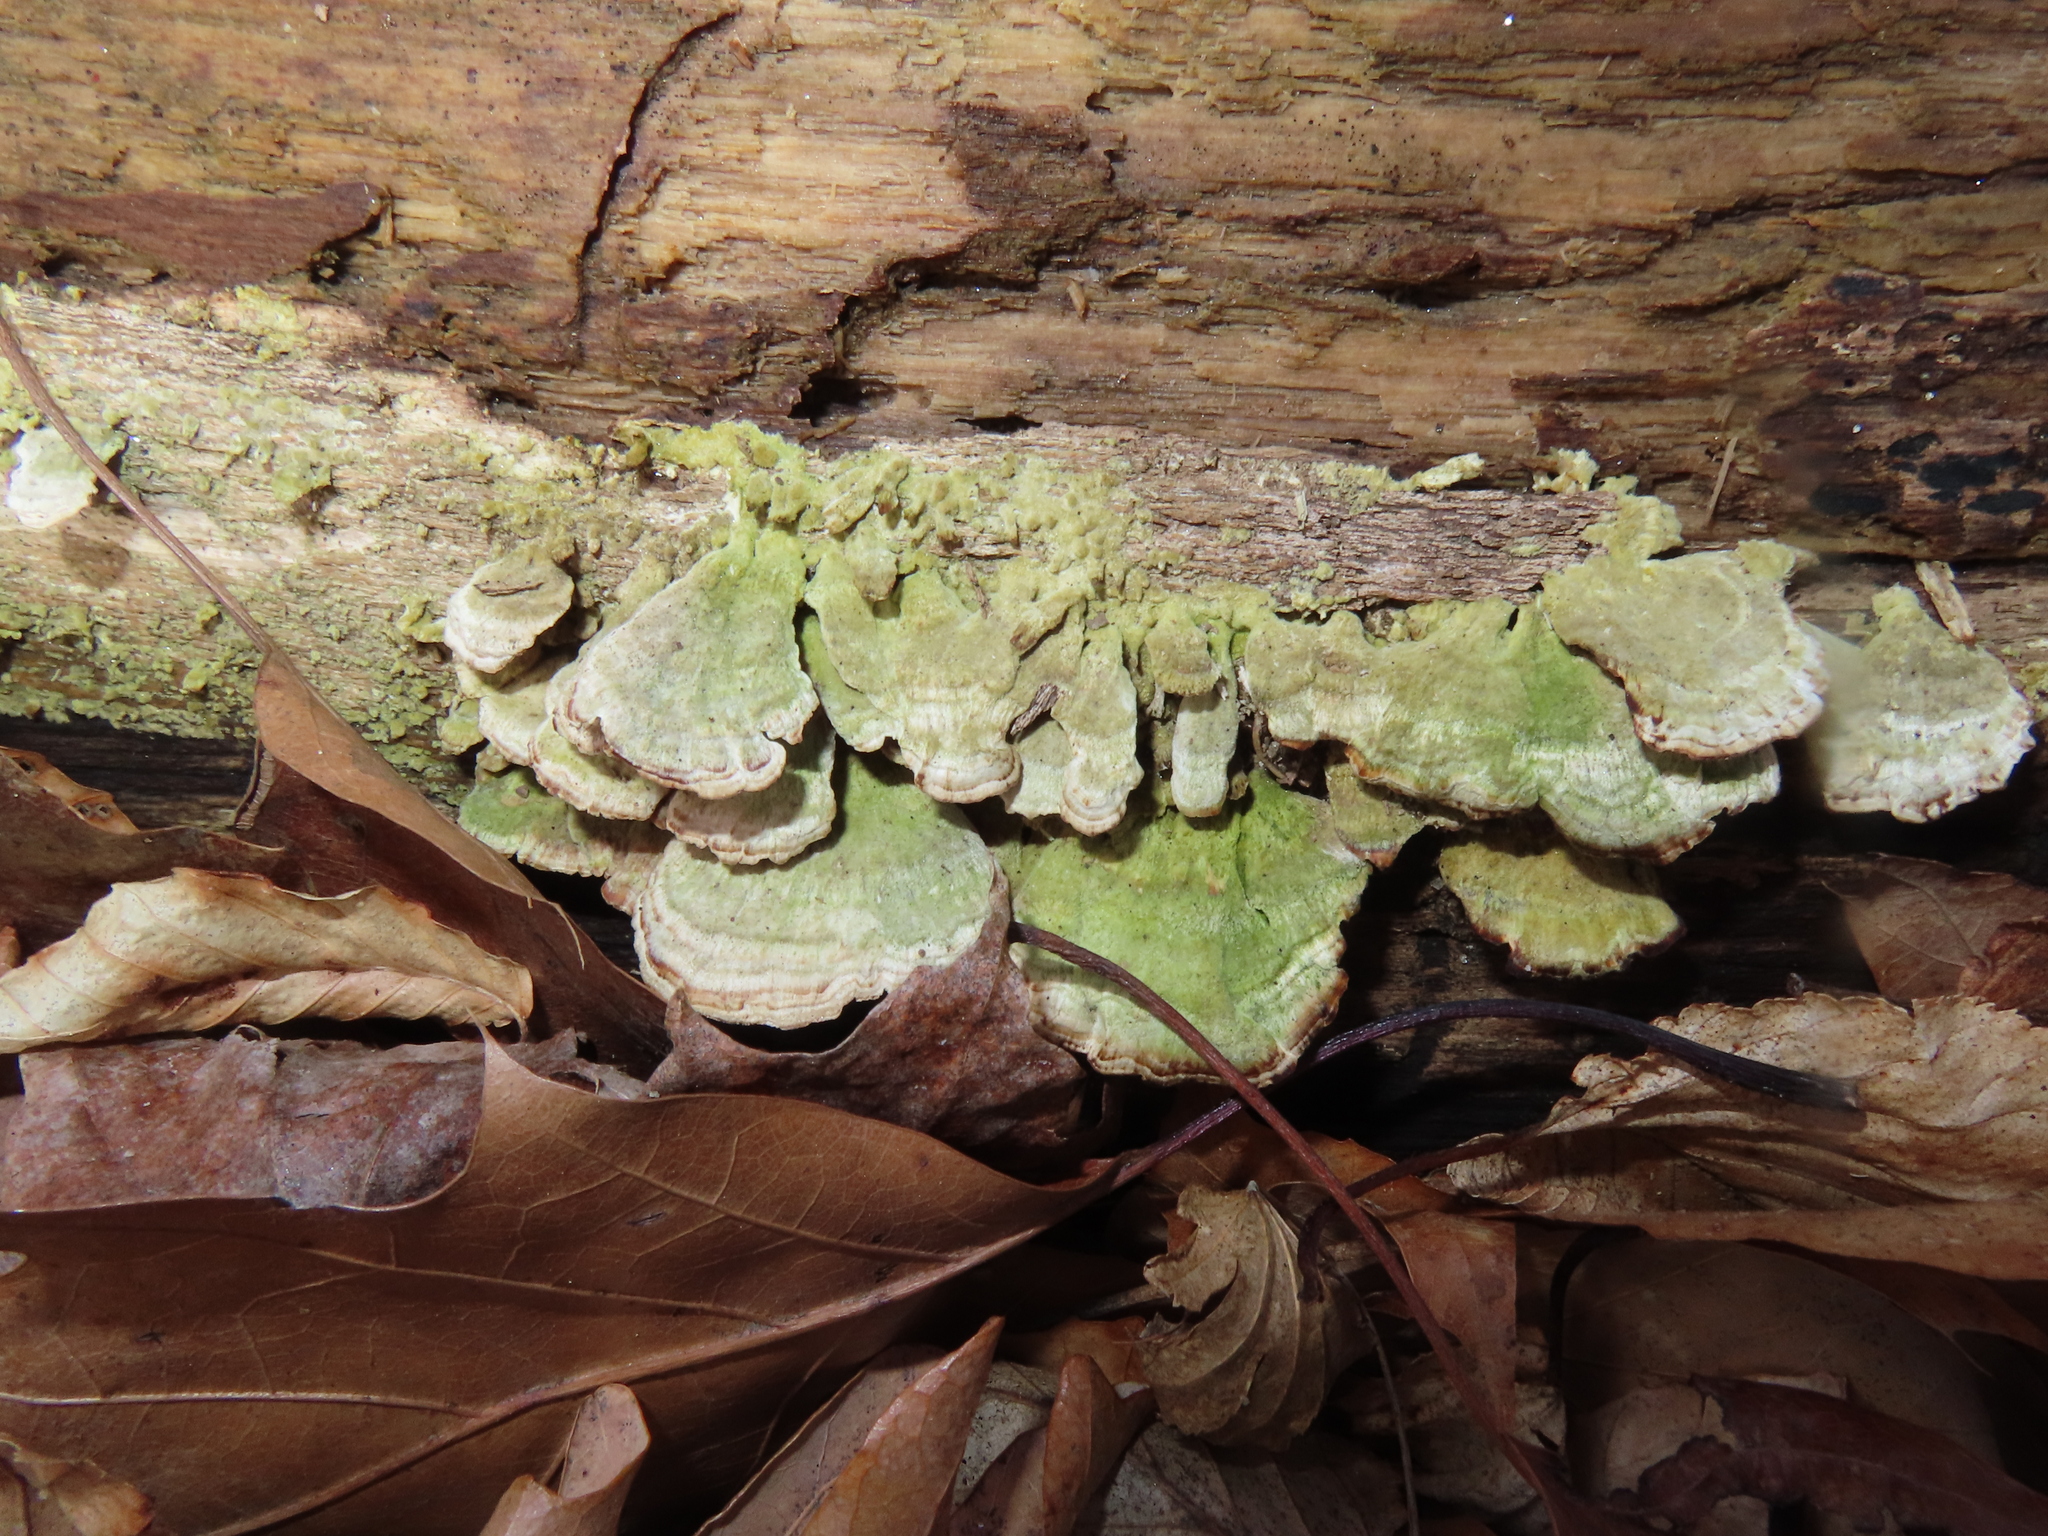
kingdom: Fungi
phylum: Basidiomycota
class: Agaricomycetes
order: Hymenochaetales
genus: Trichaptum
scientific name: Trichaptum biforme
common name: Violet-toothed polypore
